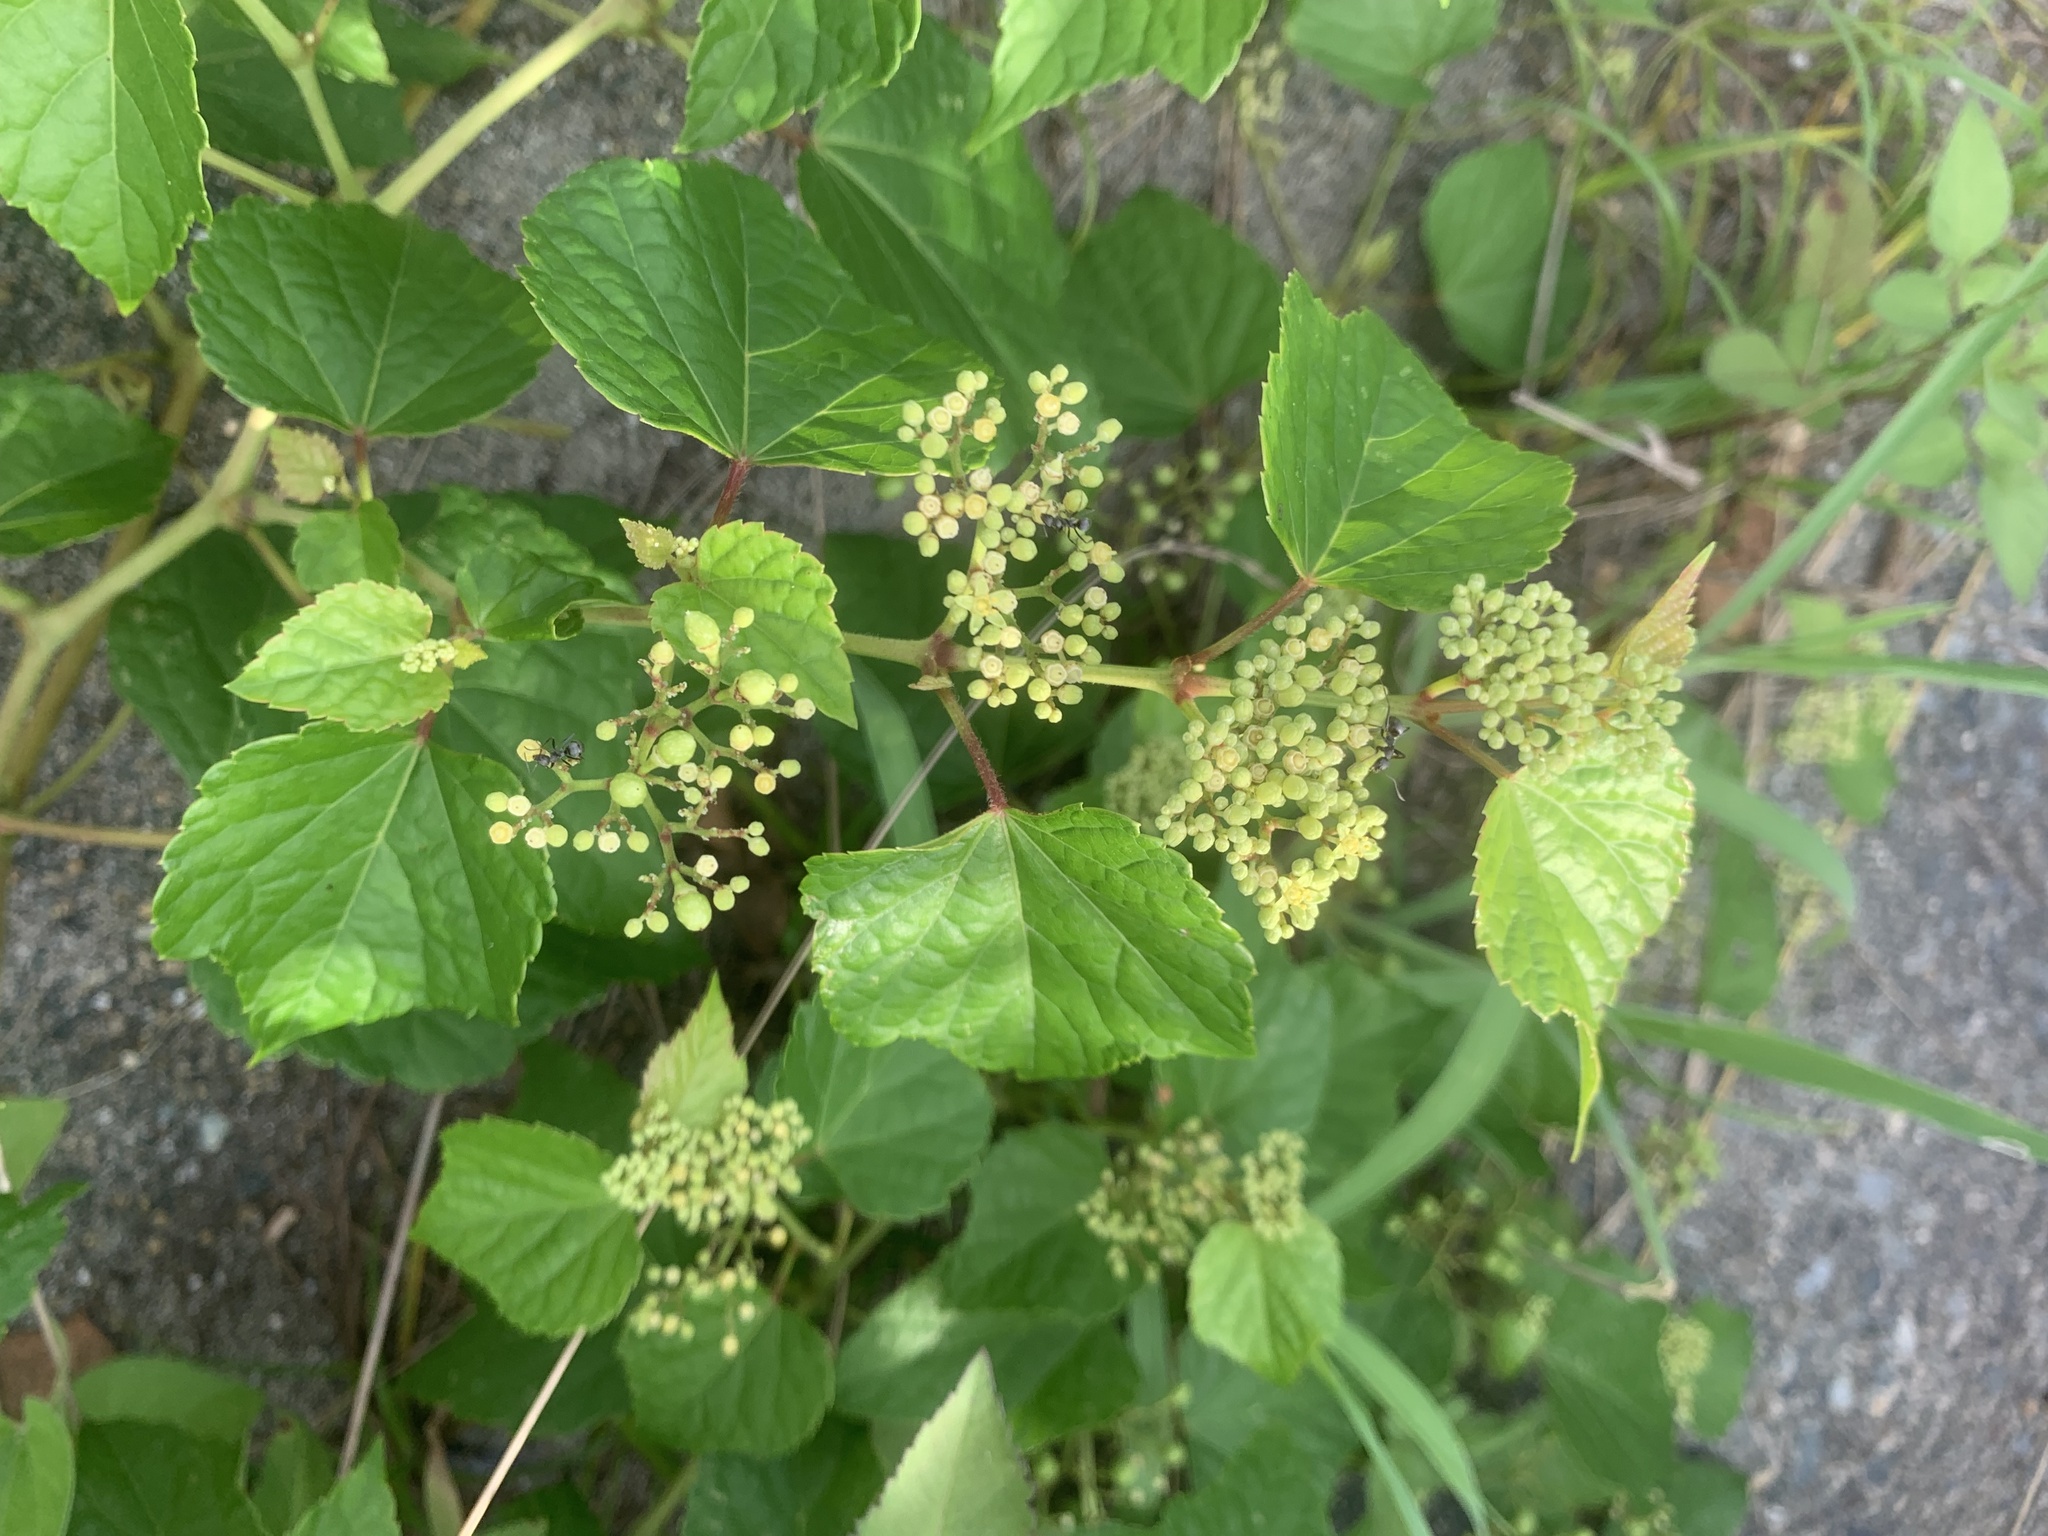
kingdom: Plantae
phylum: Tracheophyta
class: Magnoliopsida
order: Vitales
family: Vitaceae
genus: Ampelopsis
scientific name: Ampelopsis glandulosa
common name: Amur peppervine
